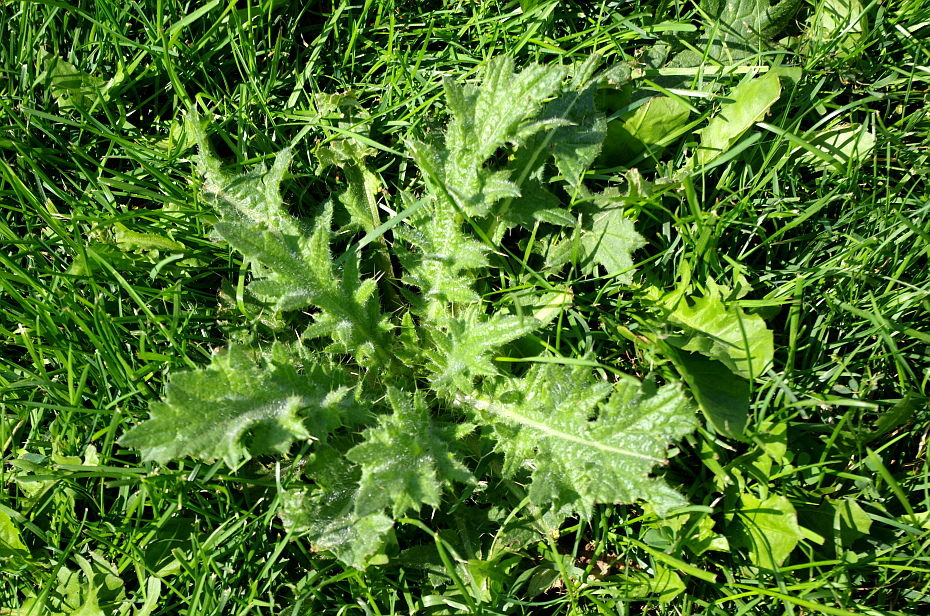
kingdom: Plantae
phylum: Tracheophyta
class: Magnoliopsida
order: Asterales
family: Asteraceae
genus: Cirsium
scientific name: Cirsium vulgare
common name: Bull thistle
